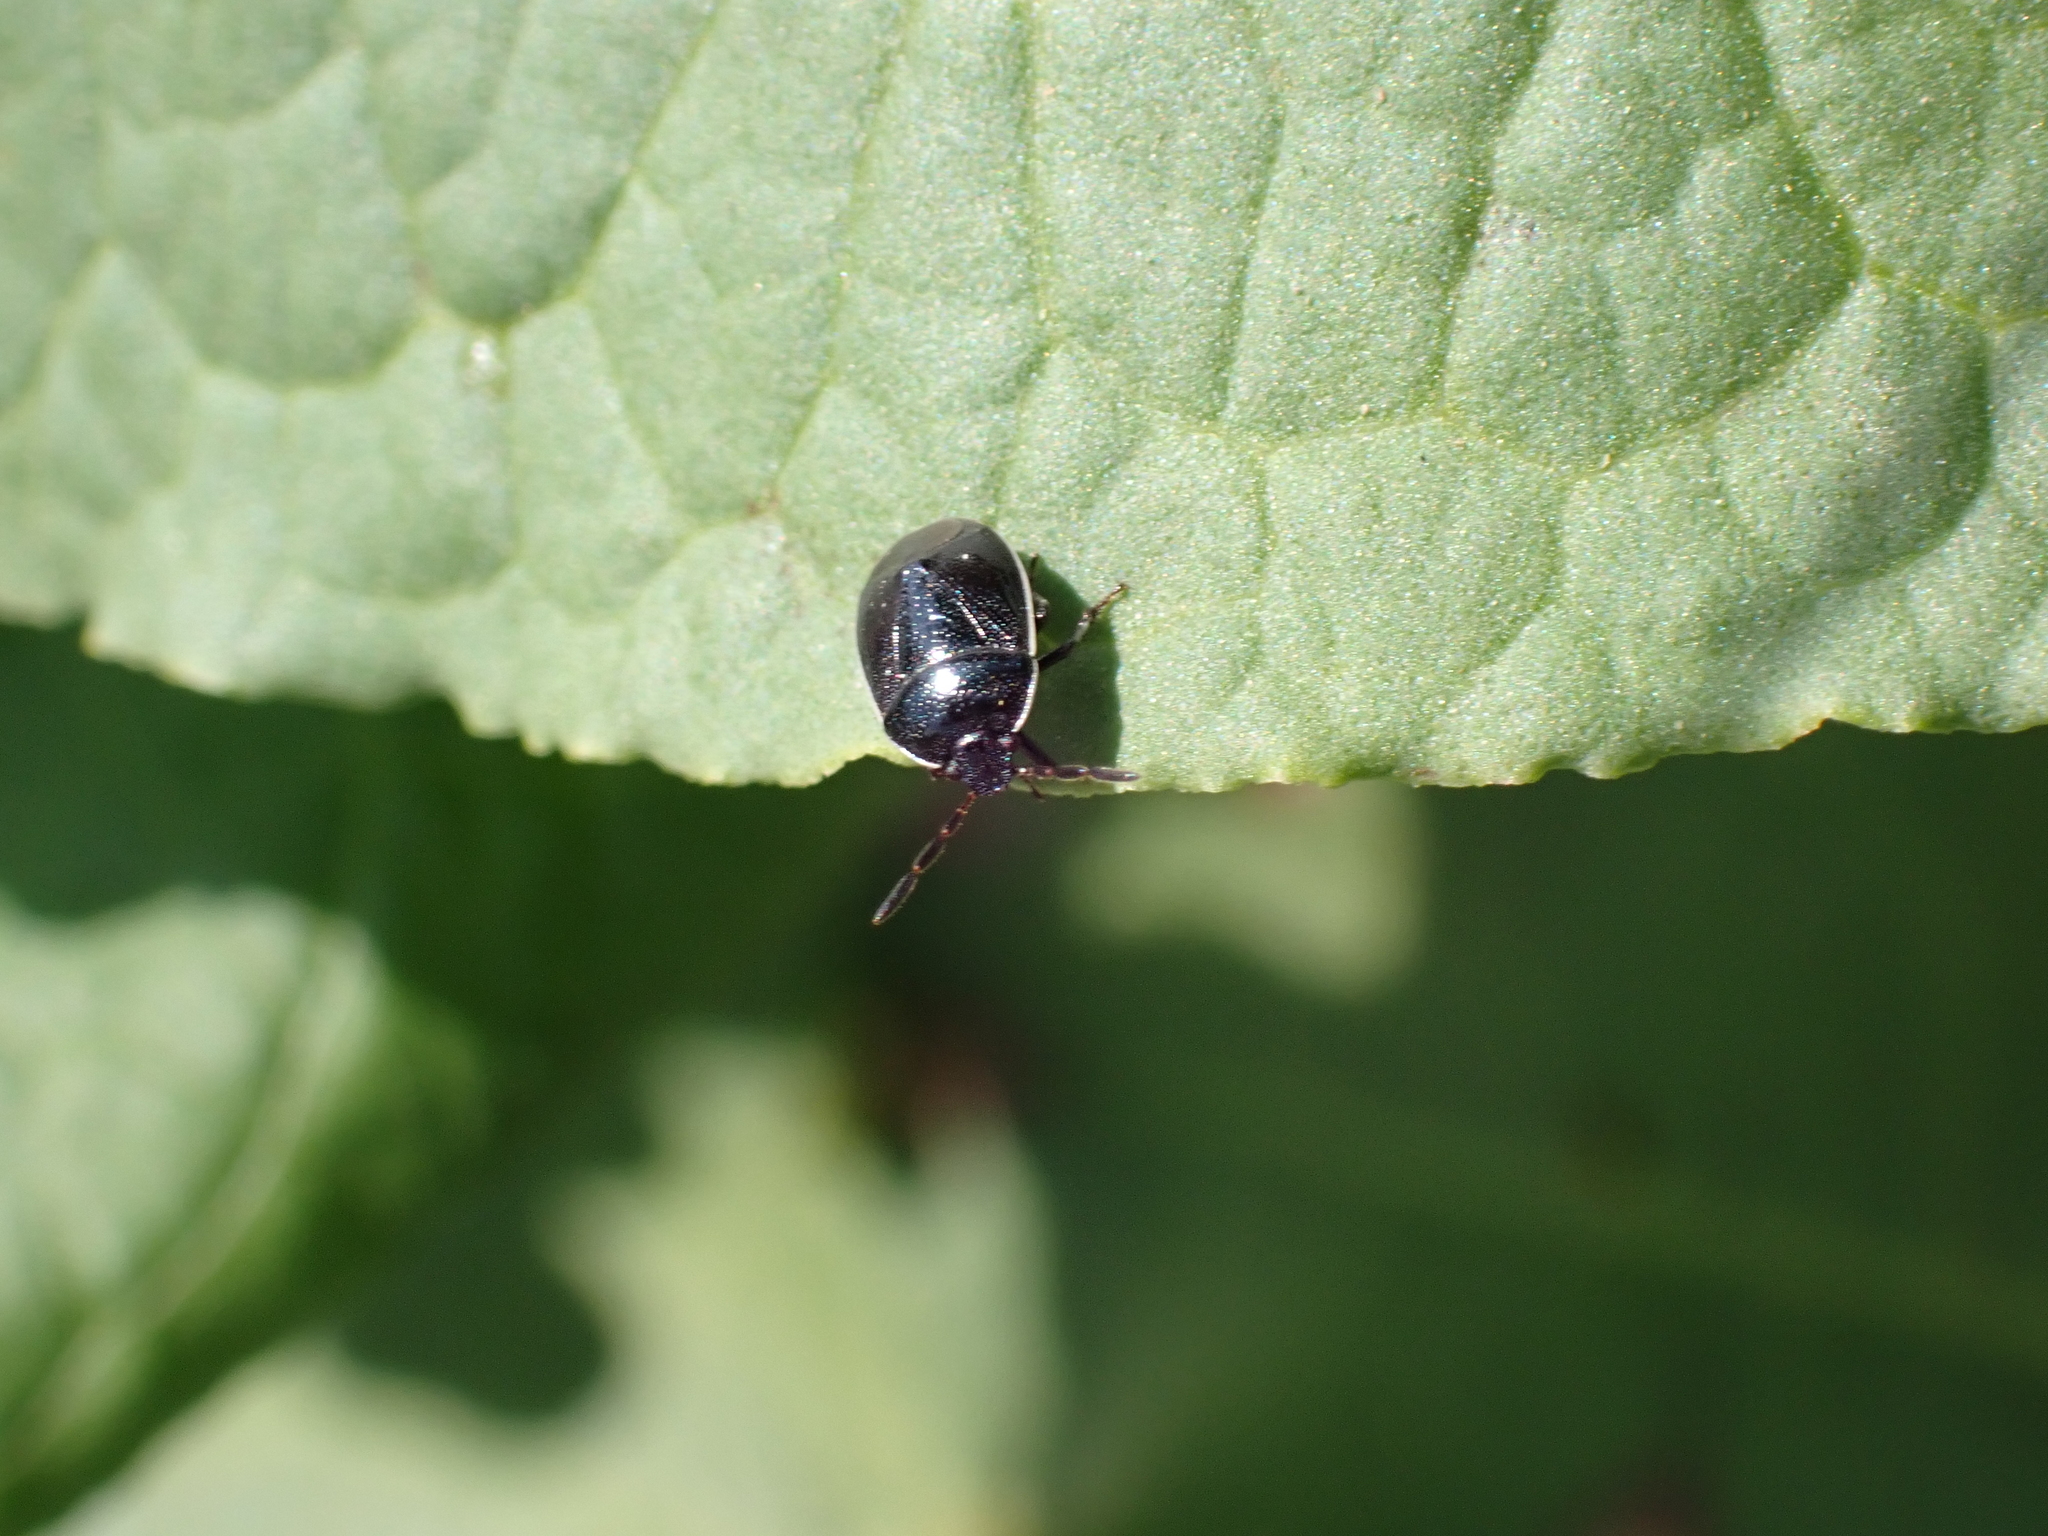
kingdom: Animalia
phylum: Arthropoda
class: Insecta
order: Hemiptera
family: Cydnidae
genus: Sehirus
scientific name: Sehirus cinctus
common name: White-margined burrower bug
